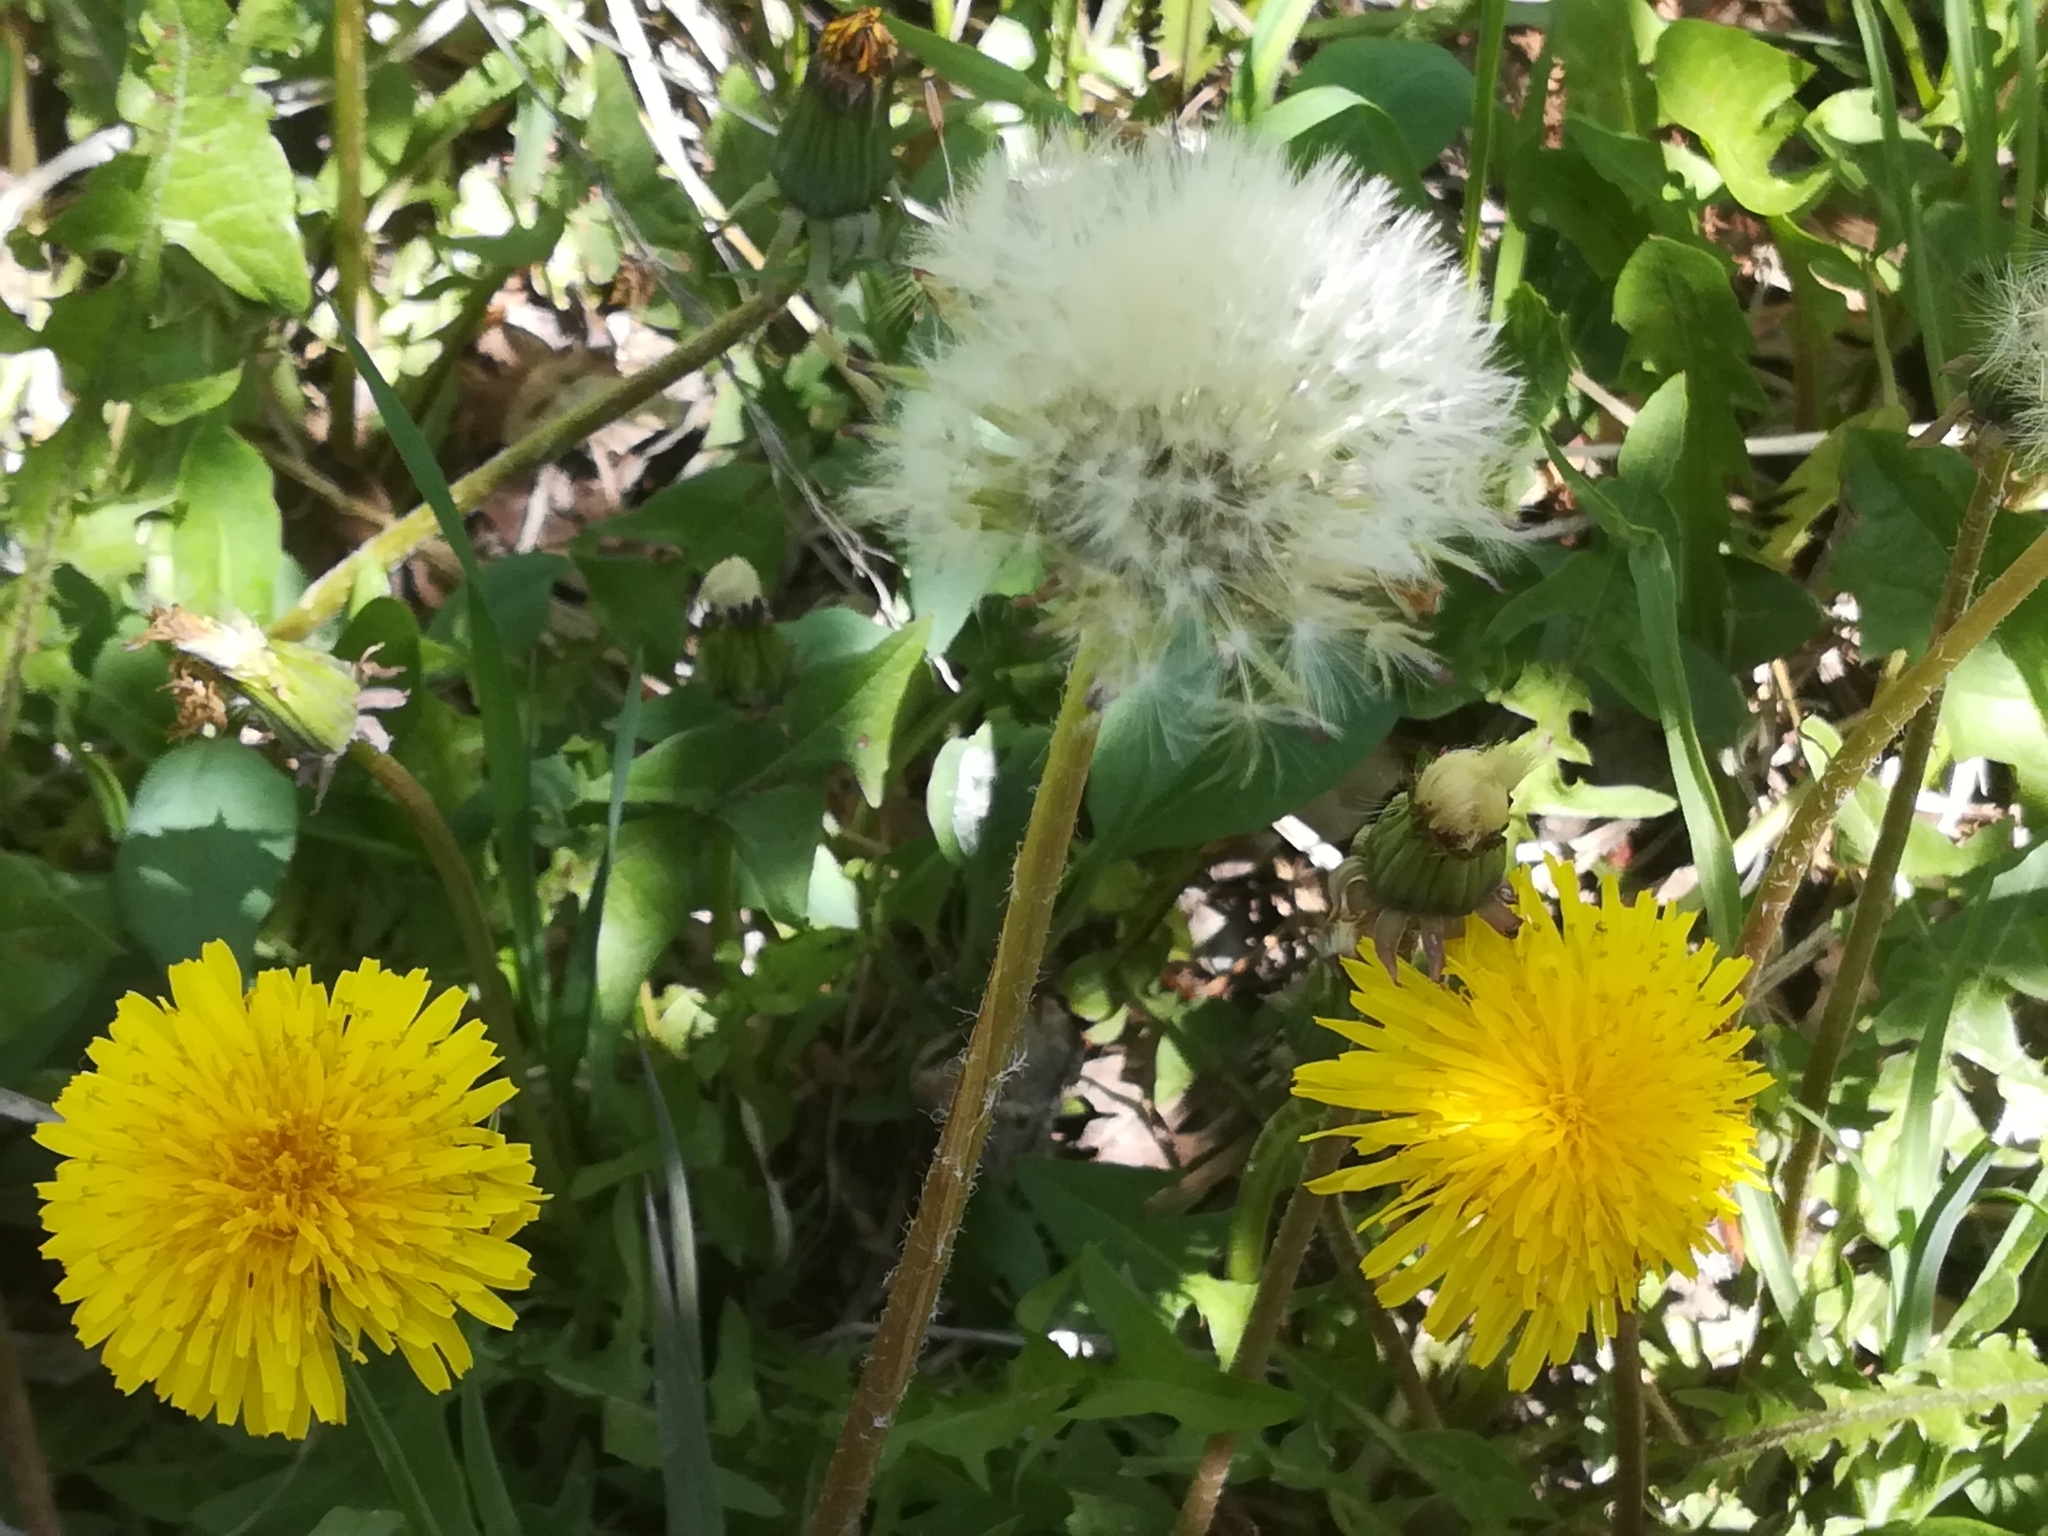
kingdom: Plantae
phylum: Tracheophyta
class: Magnoliopsida
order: Asterales
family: Asteraceae
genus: Taraxacum
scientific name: Taraxacum officinale
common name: Common dandelion
